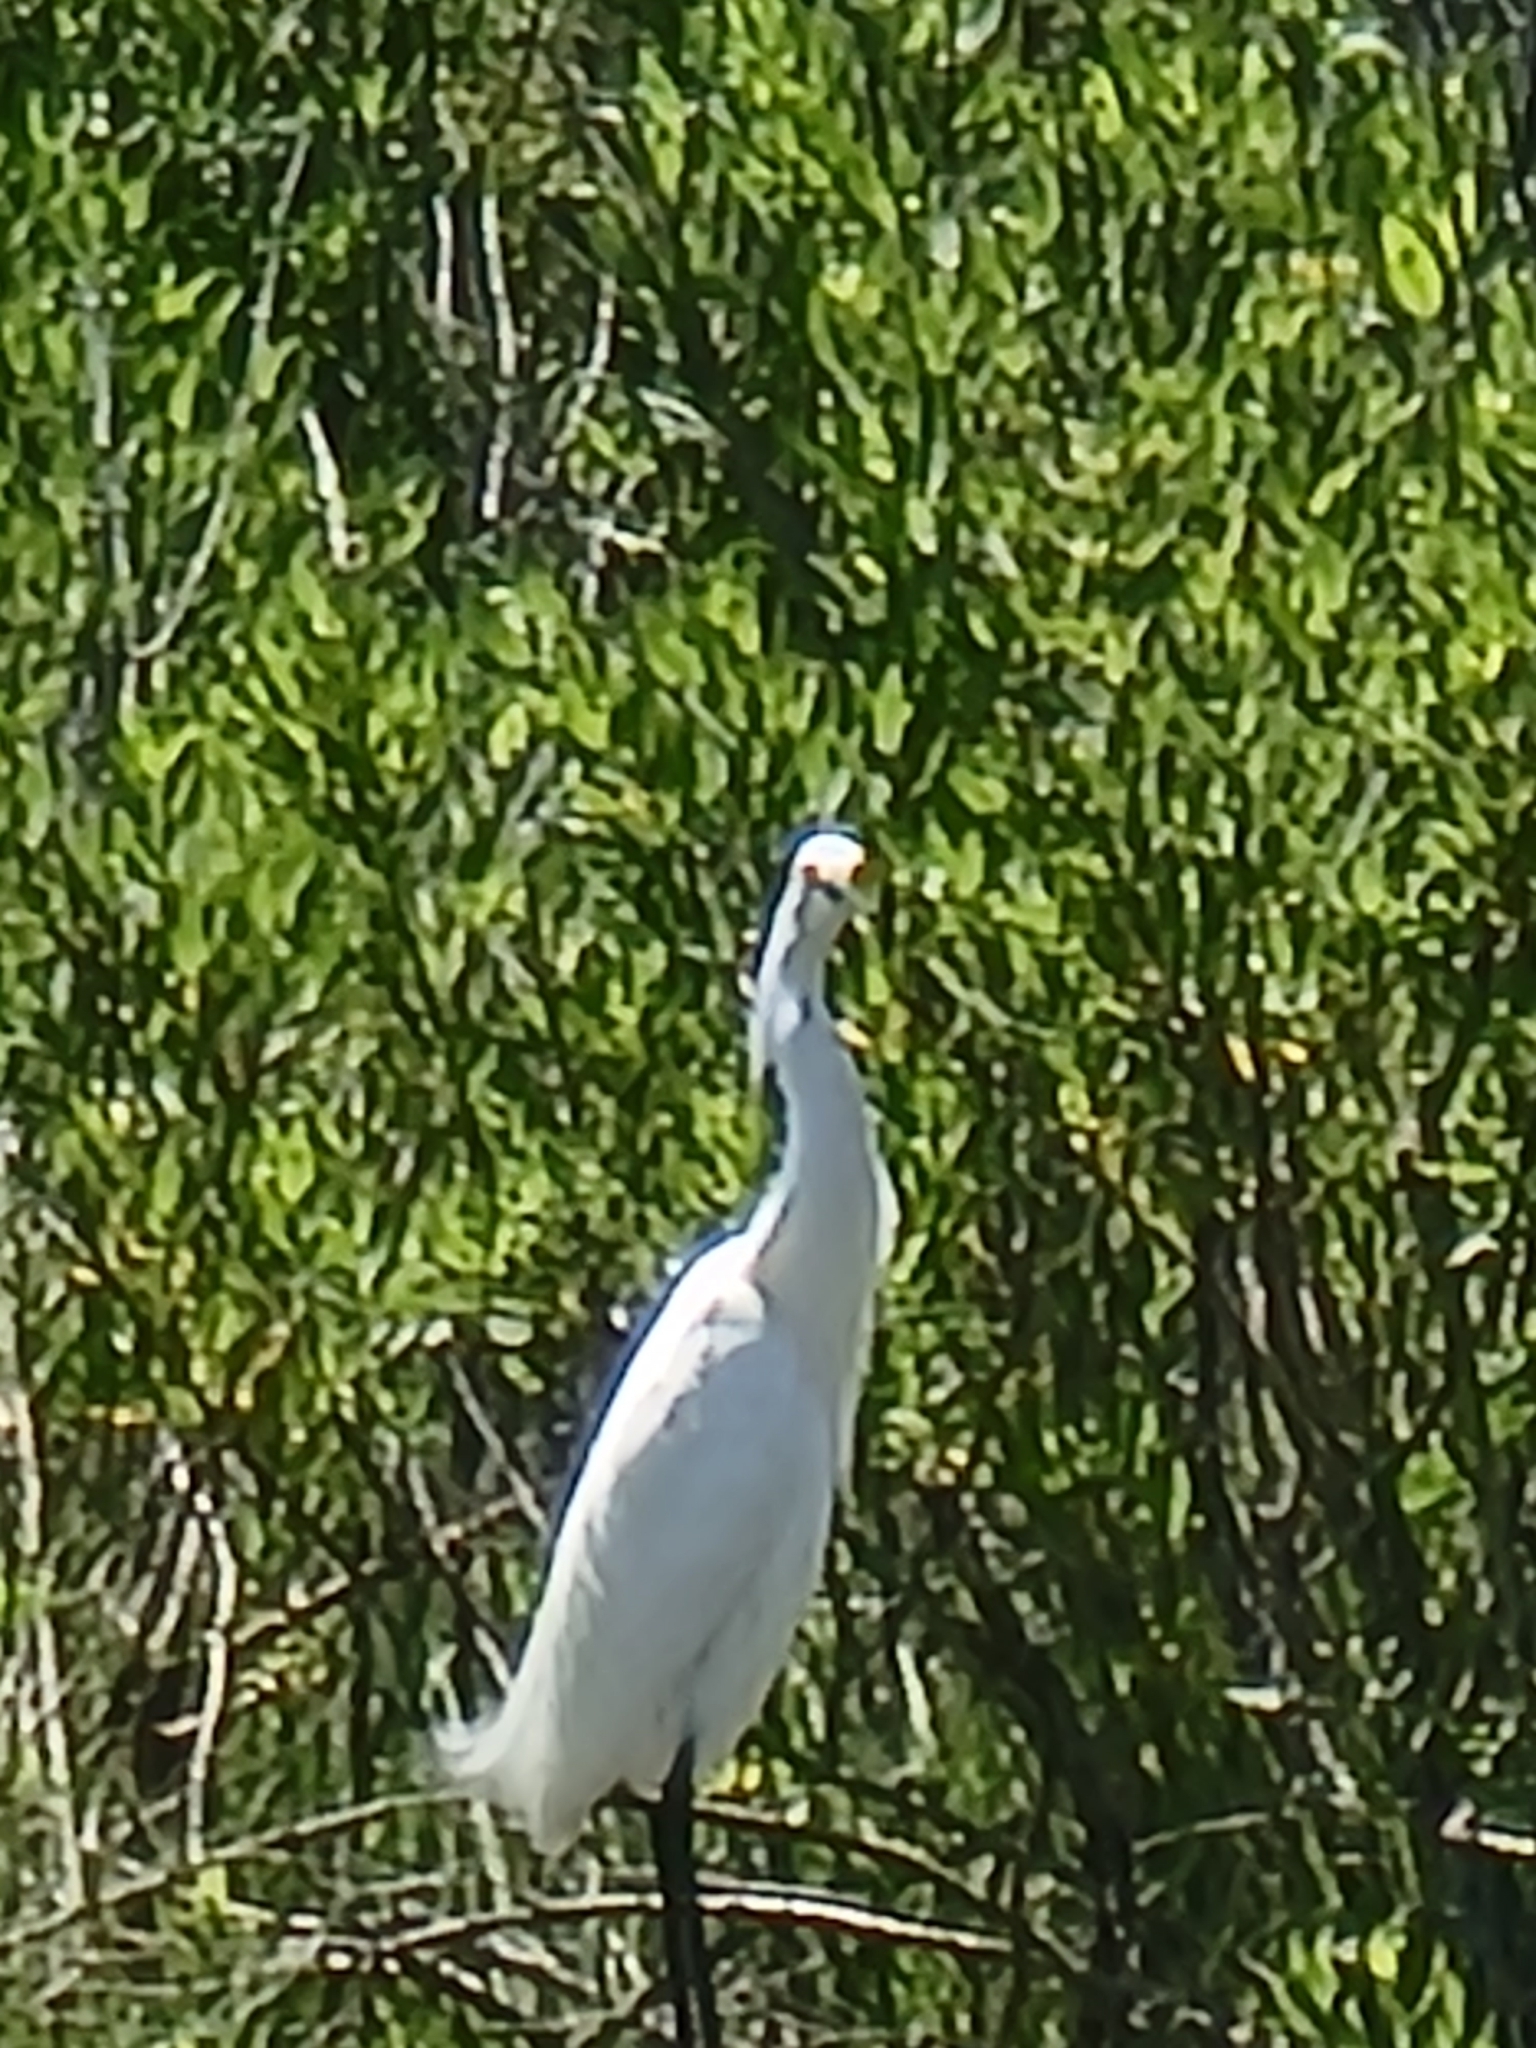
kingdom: Animalia
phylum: Chordata
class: Aves
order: Pelecaniformes
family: Ardeidae
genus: Egretta
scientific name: Egretta thula
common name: Snowy egret
